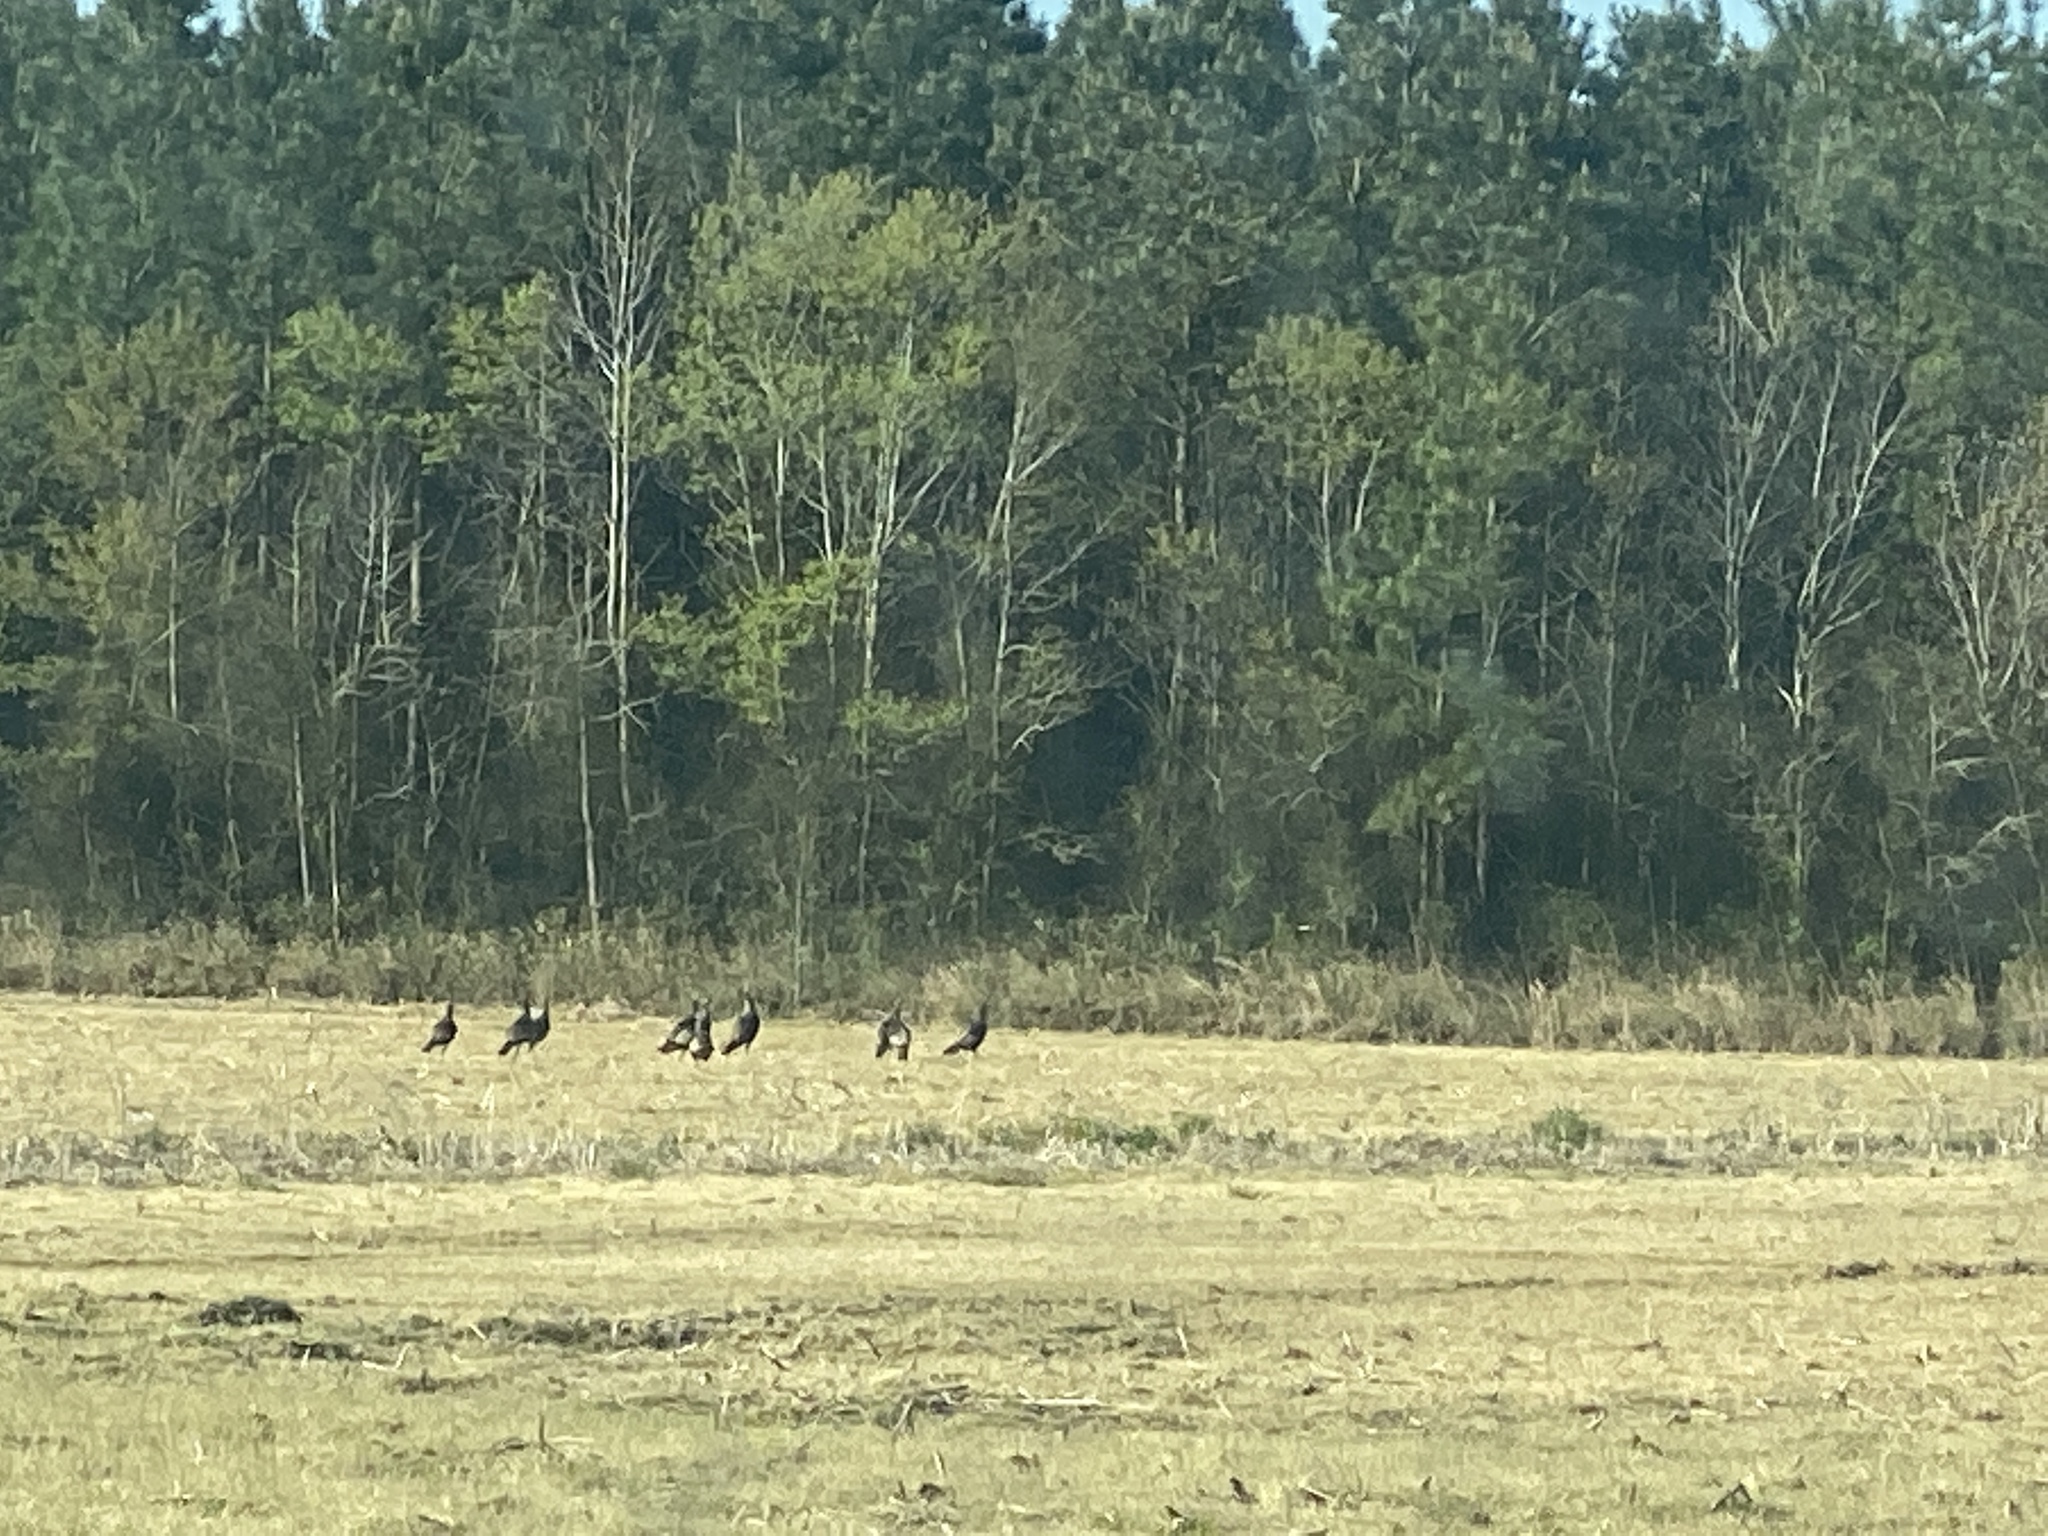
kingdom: Animalia
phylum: Chordata
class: Aves
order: Galliformes
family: Phasianidae
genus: Meleagris
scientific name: Meleagris gallopavo
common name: Wild turkey
